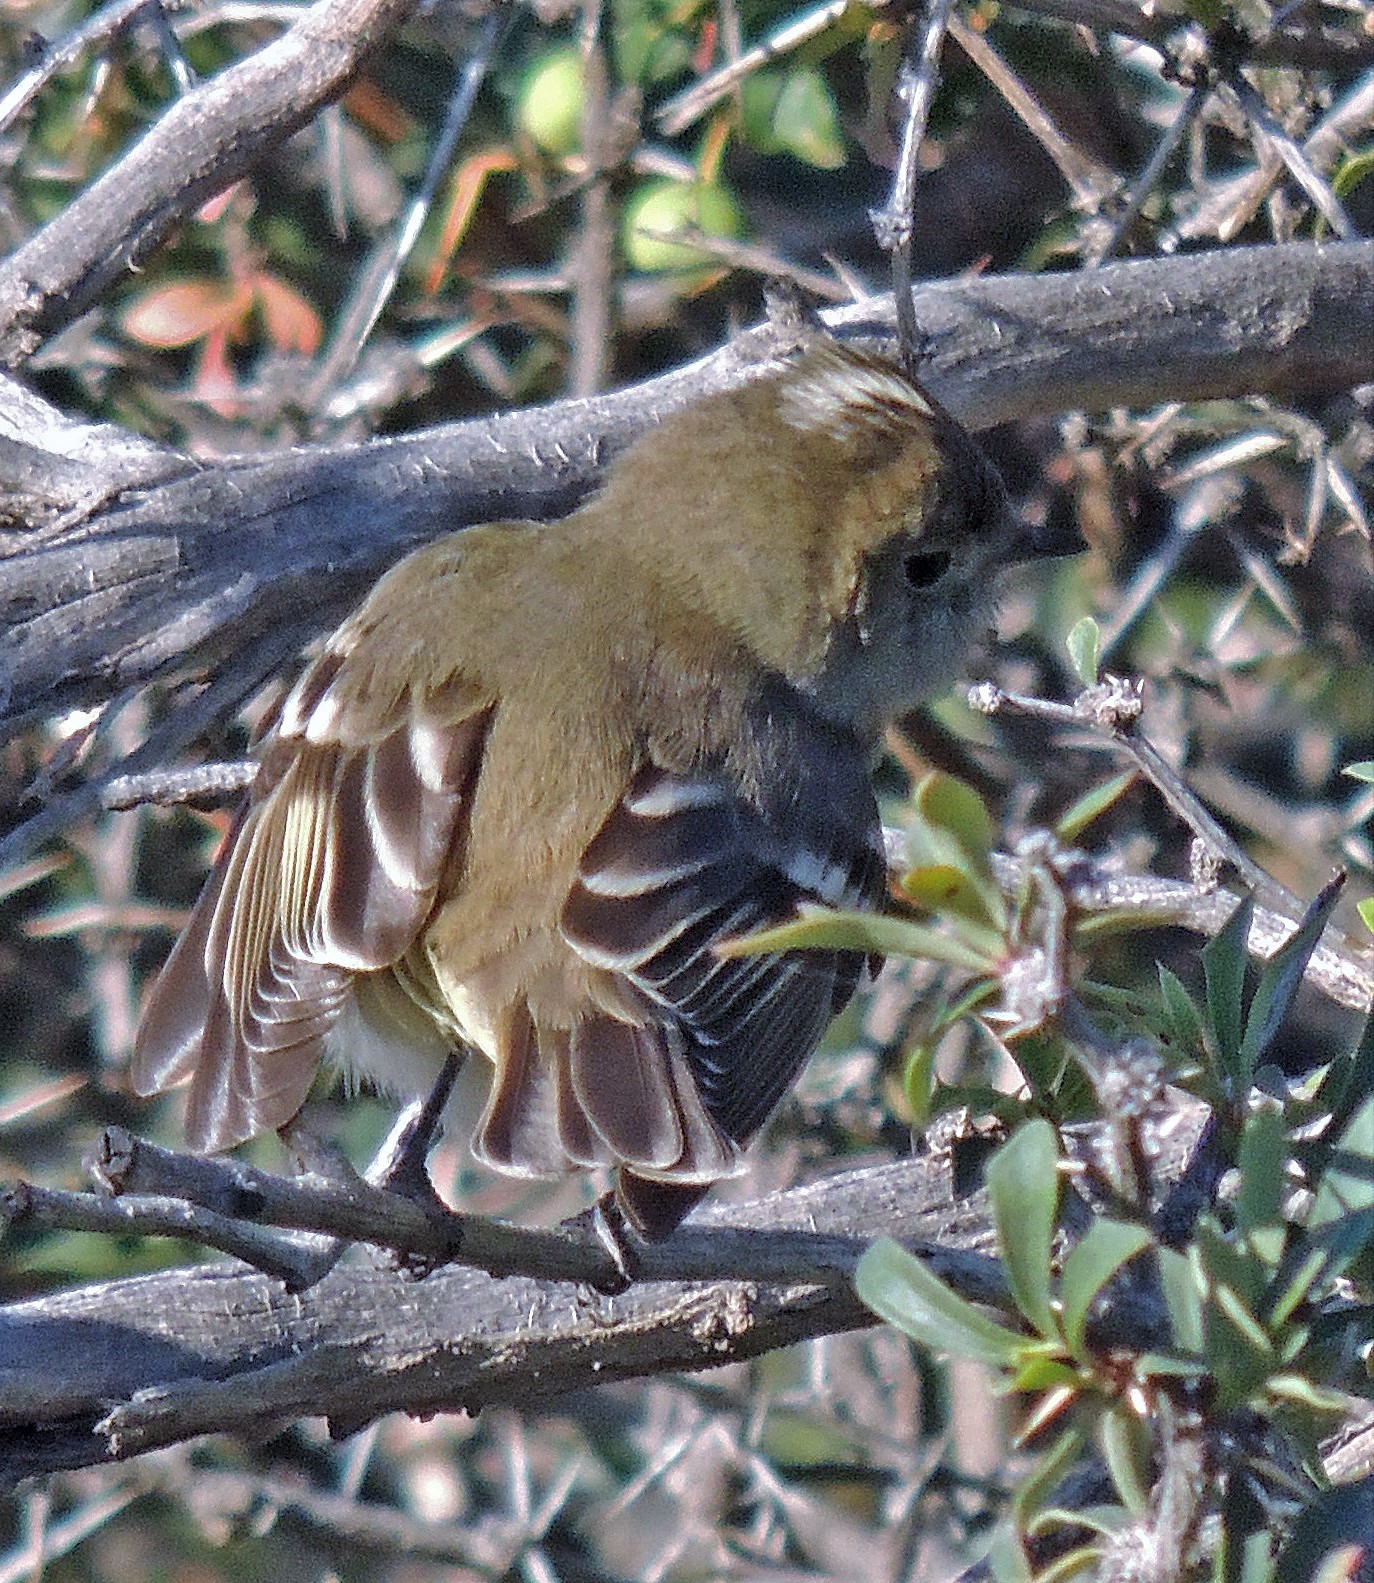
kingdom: Animalia
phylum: Chordata
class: Aves
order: Passeriformes
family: Tyrannidae
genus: Elaenia
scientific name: Elaenia albiceps
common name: White-crested elaenia
